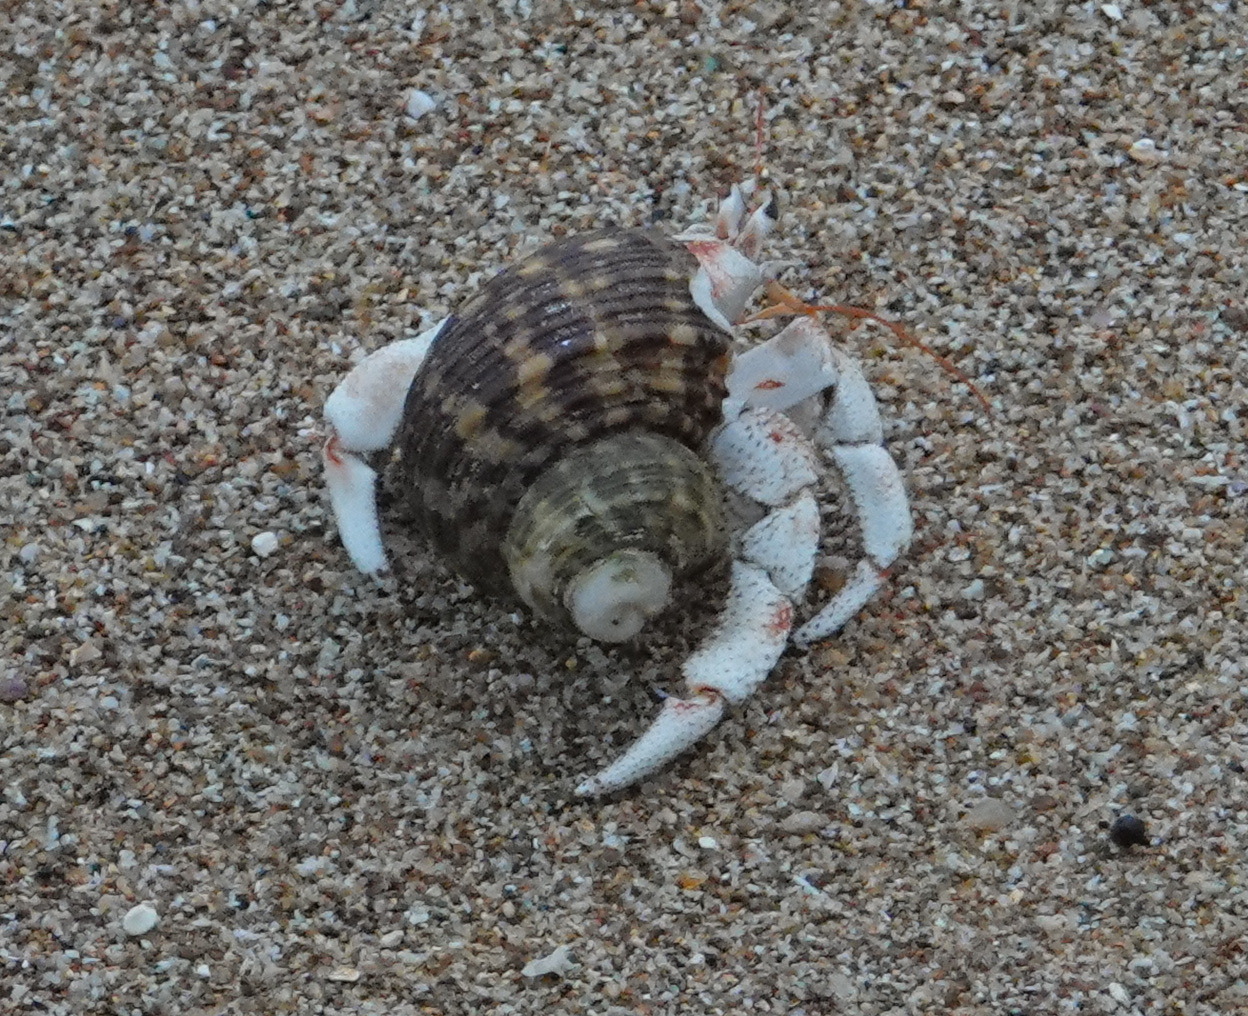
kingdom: Animalia
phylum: Arthropoda
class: Malacostraca
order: Decapoda
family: Coenobitidae
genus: Coenobita
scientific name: Coenobita perlatus
